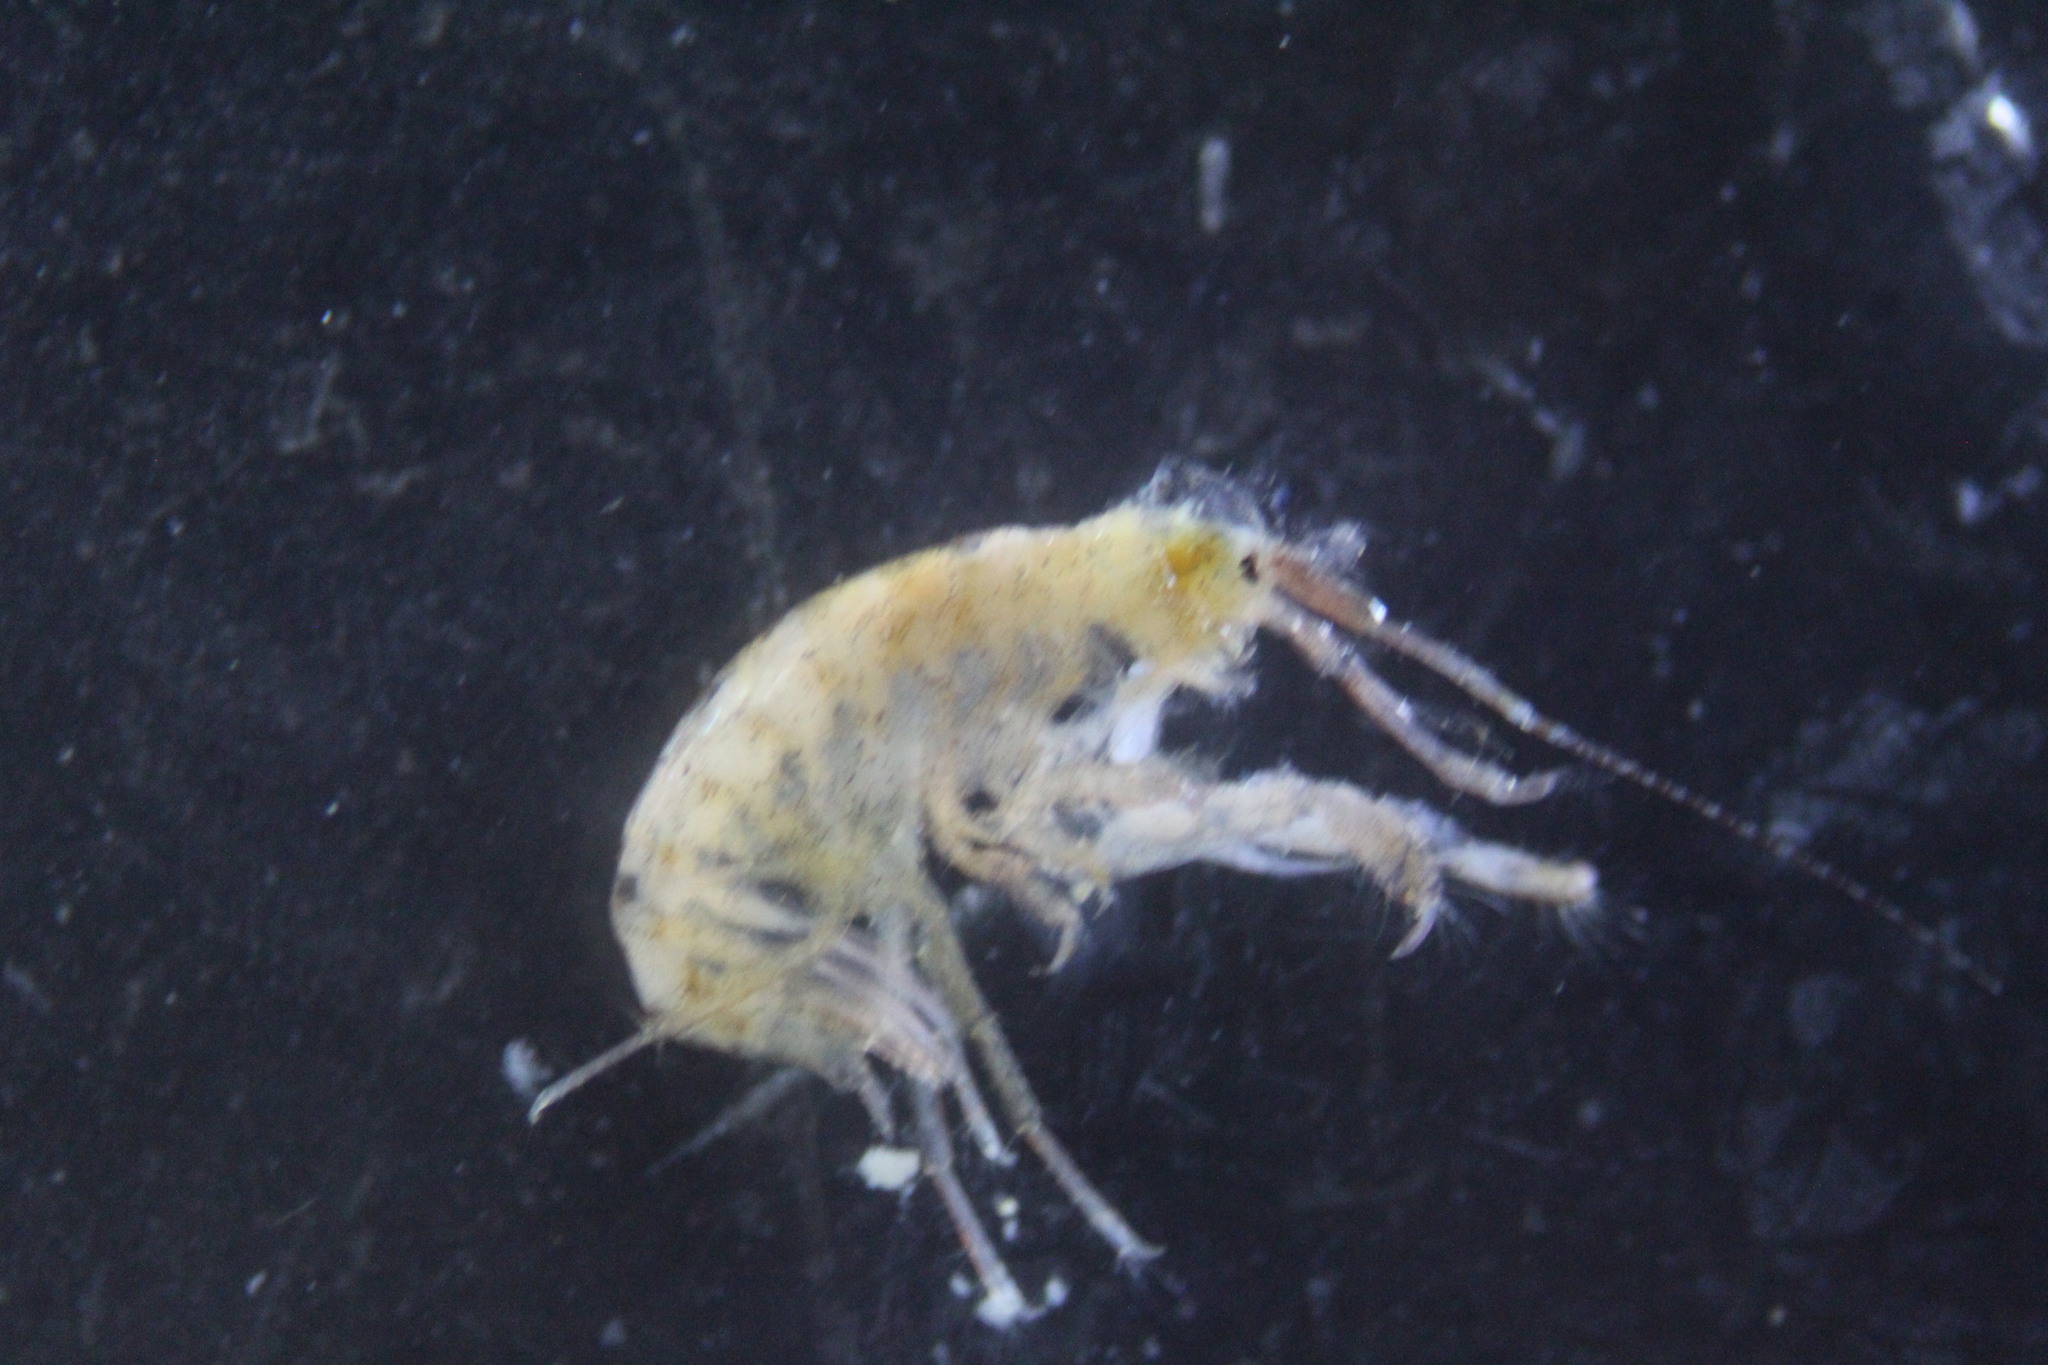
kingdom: Animalia
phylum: Arthropoda
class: Malacostraca
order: Amphipoda
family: Aoridae
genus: Aora
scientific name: Aora typica
